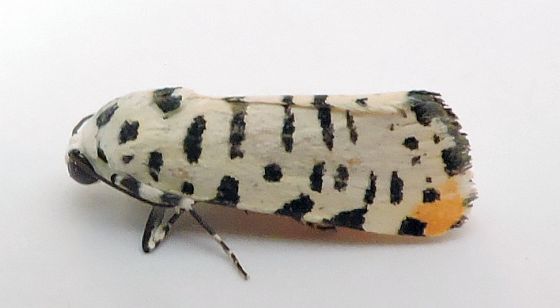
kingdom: Animalia
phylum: Arthropoda
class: Insecta
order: Lepidoptera
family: Noctuidae
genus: Acontia
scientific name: Acontia idella
